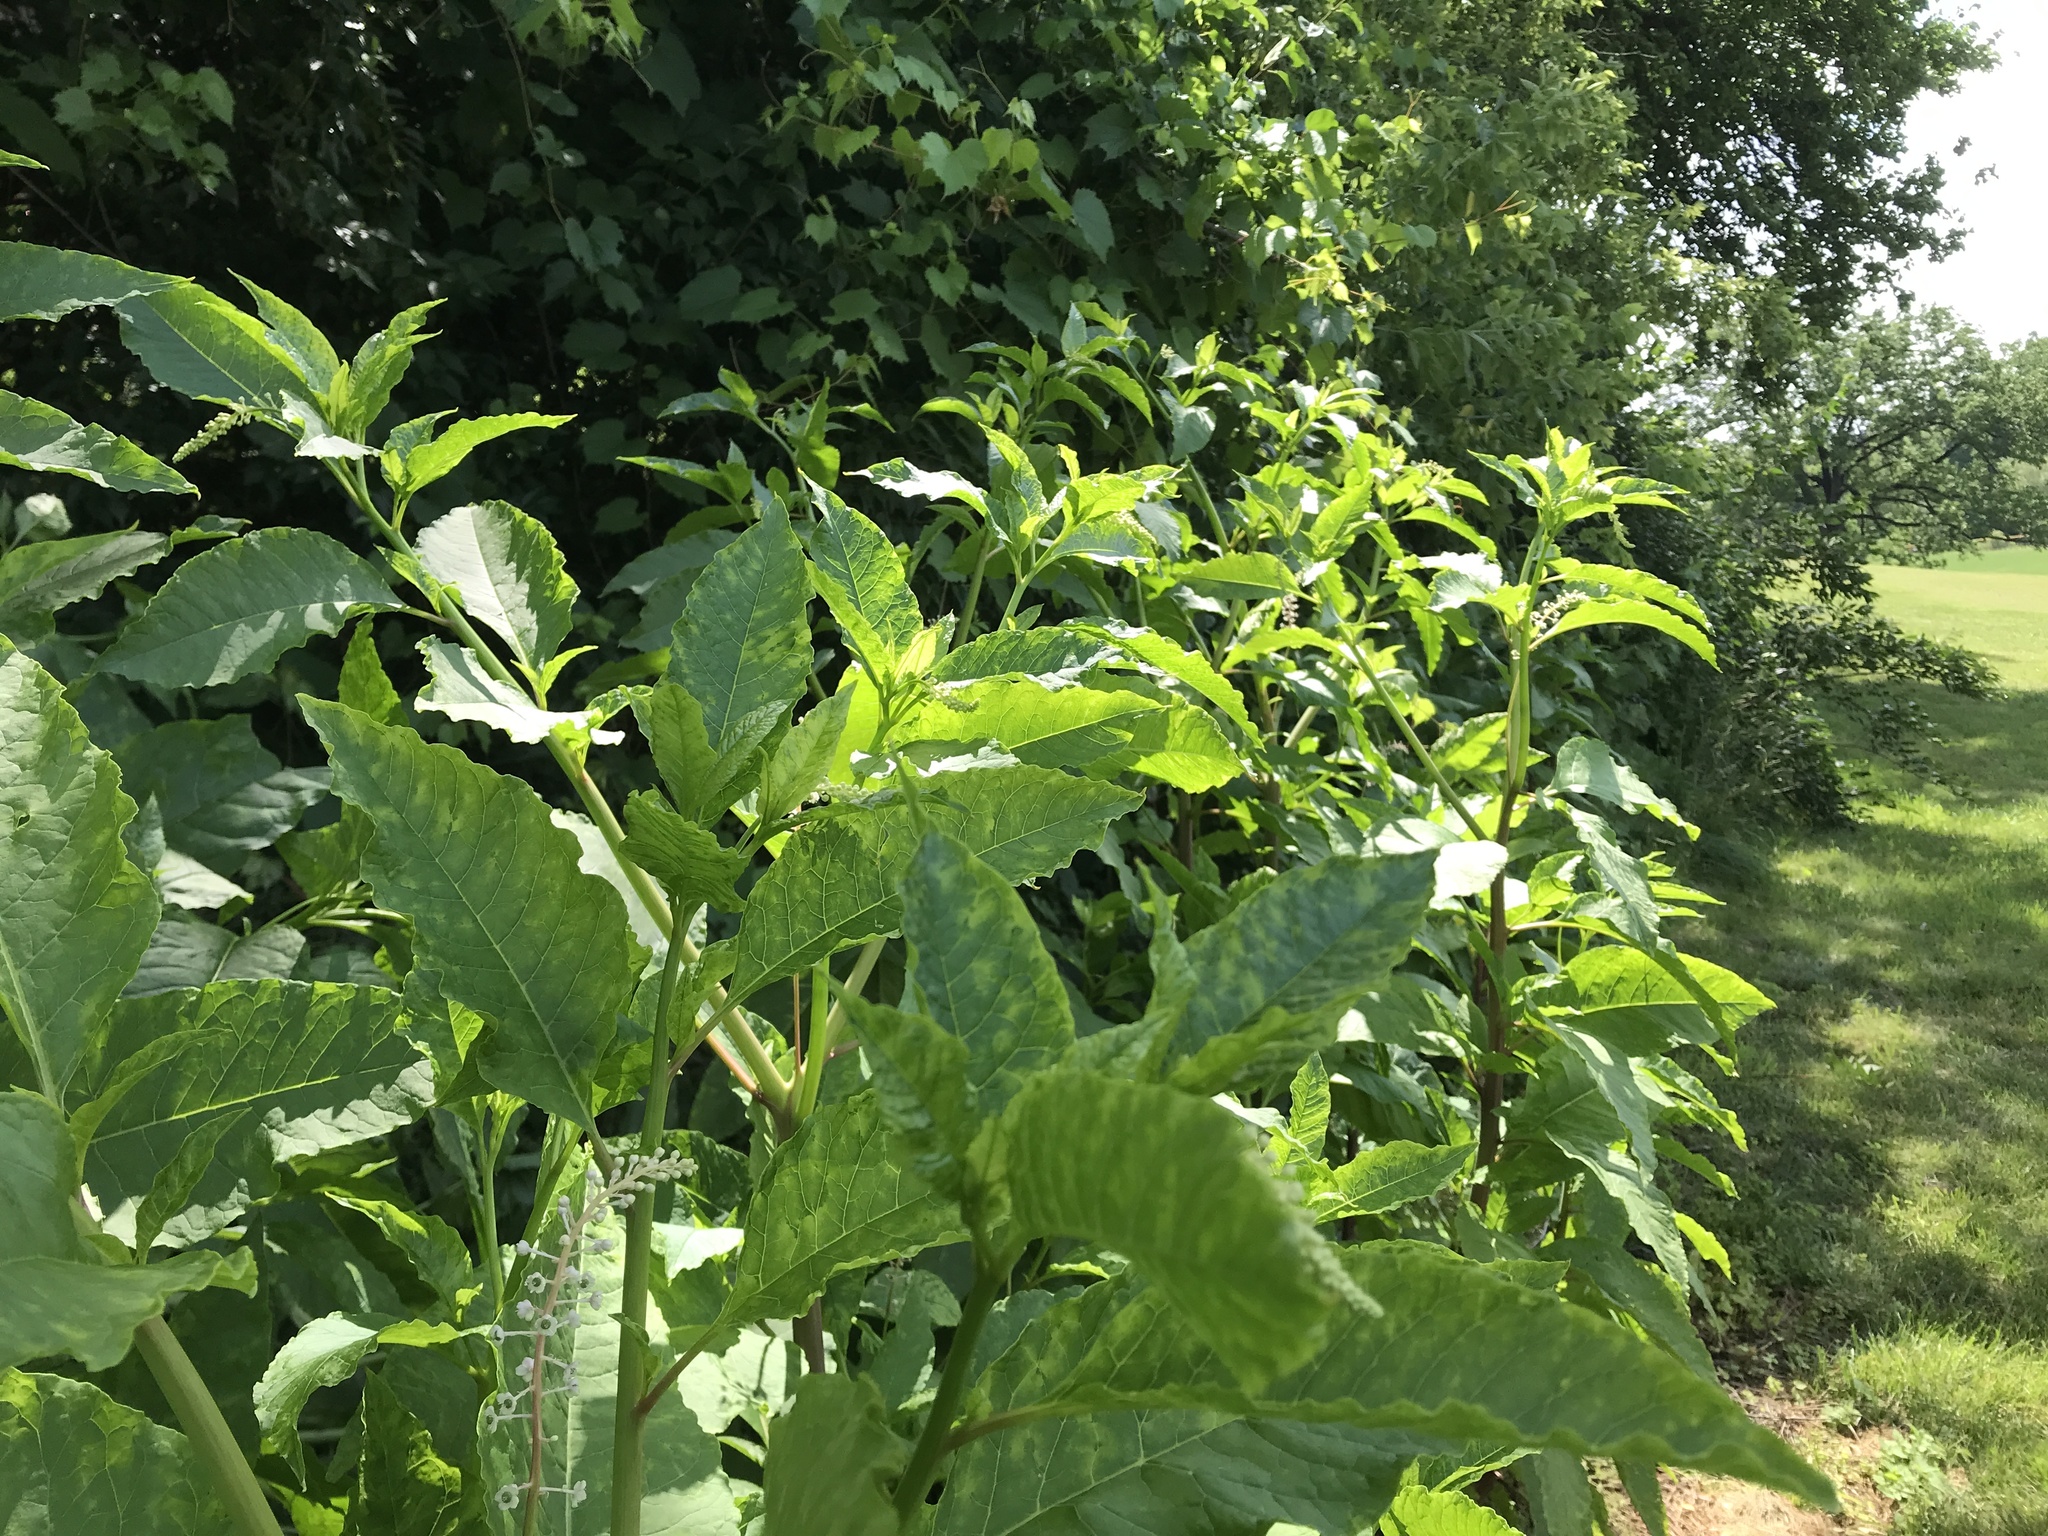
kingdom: Plantae
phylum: Tracheophyta
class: Magnoliopsida
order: Caryophyllales
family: Phytolaccaceae
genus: Phytolacca
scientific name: Phytolacca americana
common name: American pokeweed
